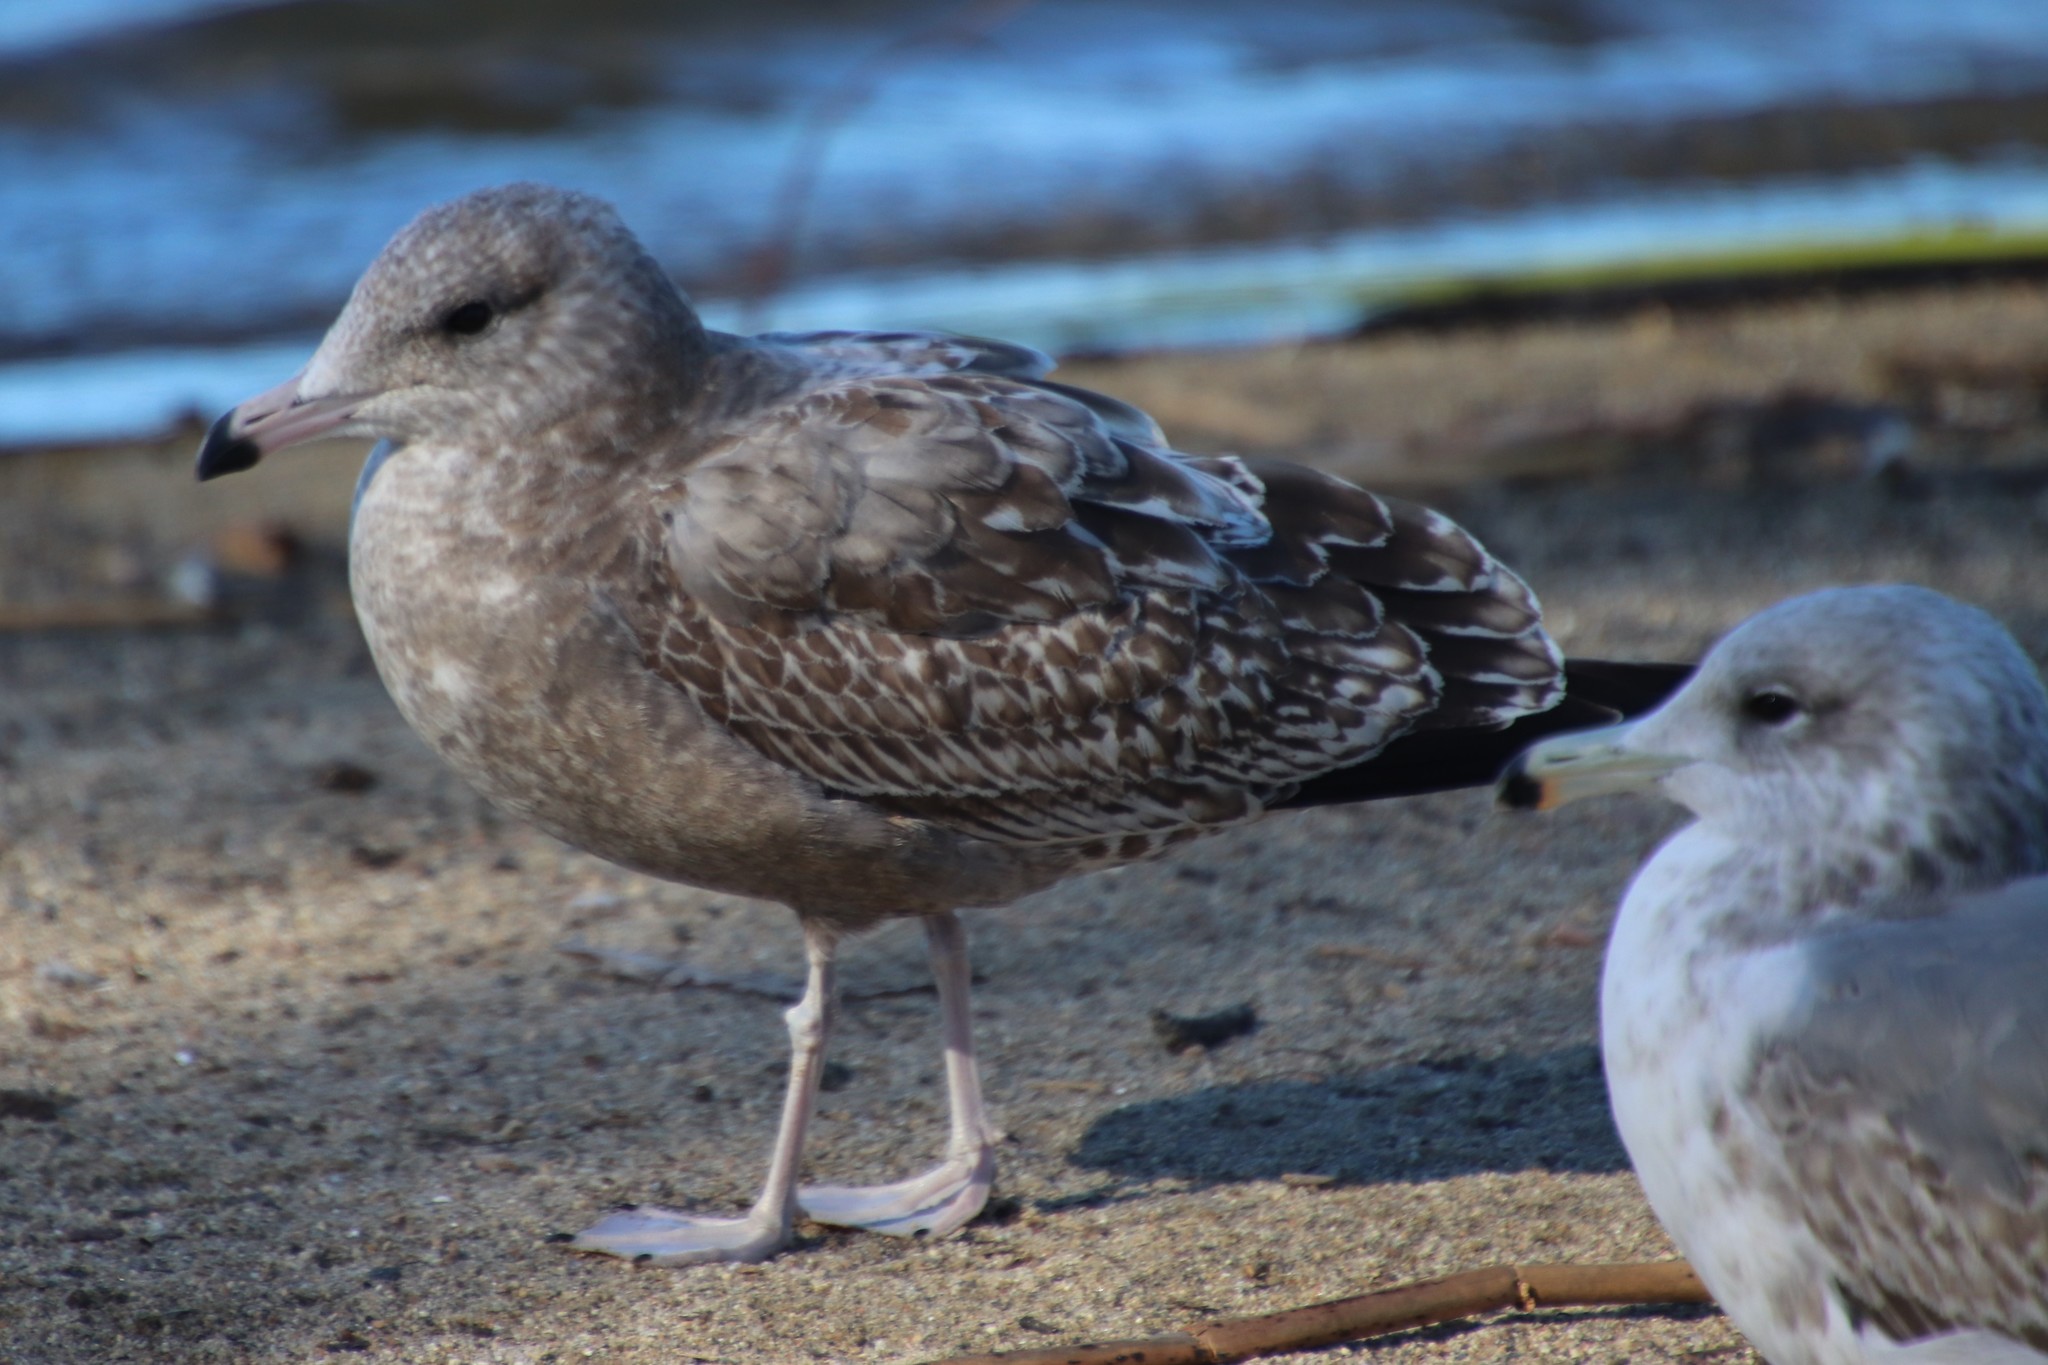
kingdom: Animalia
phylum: Chordata
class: Aves
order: Charadriiformes
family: Laridae
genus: Larus
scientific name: Larus californicus
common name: California gull
